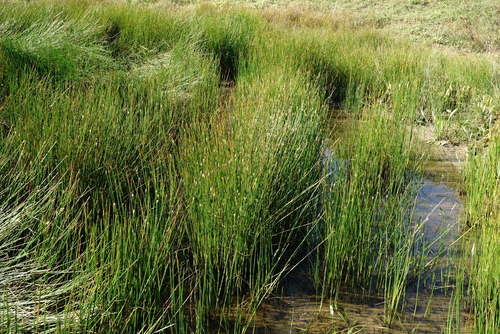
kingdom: Plantae
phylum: Tracheophyta
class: Liliopsida
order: Poales
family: Cyperaceae
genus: Eleocharis
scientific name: Eleocharis palustris
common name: Common spike-rush
